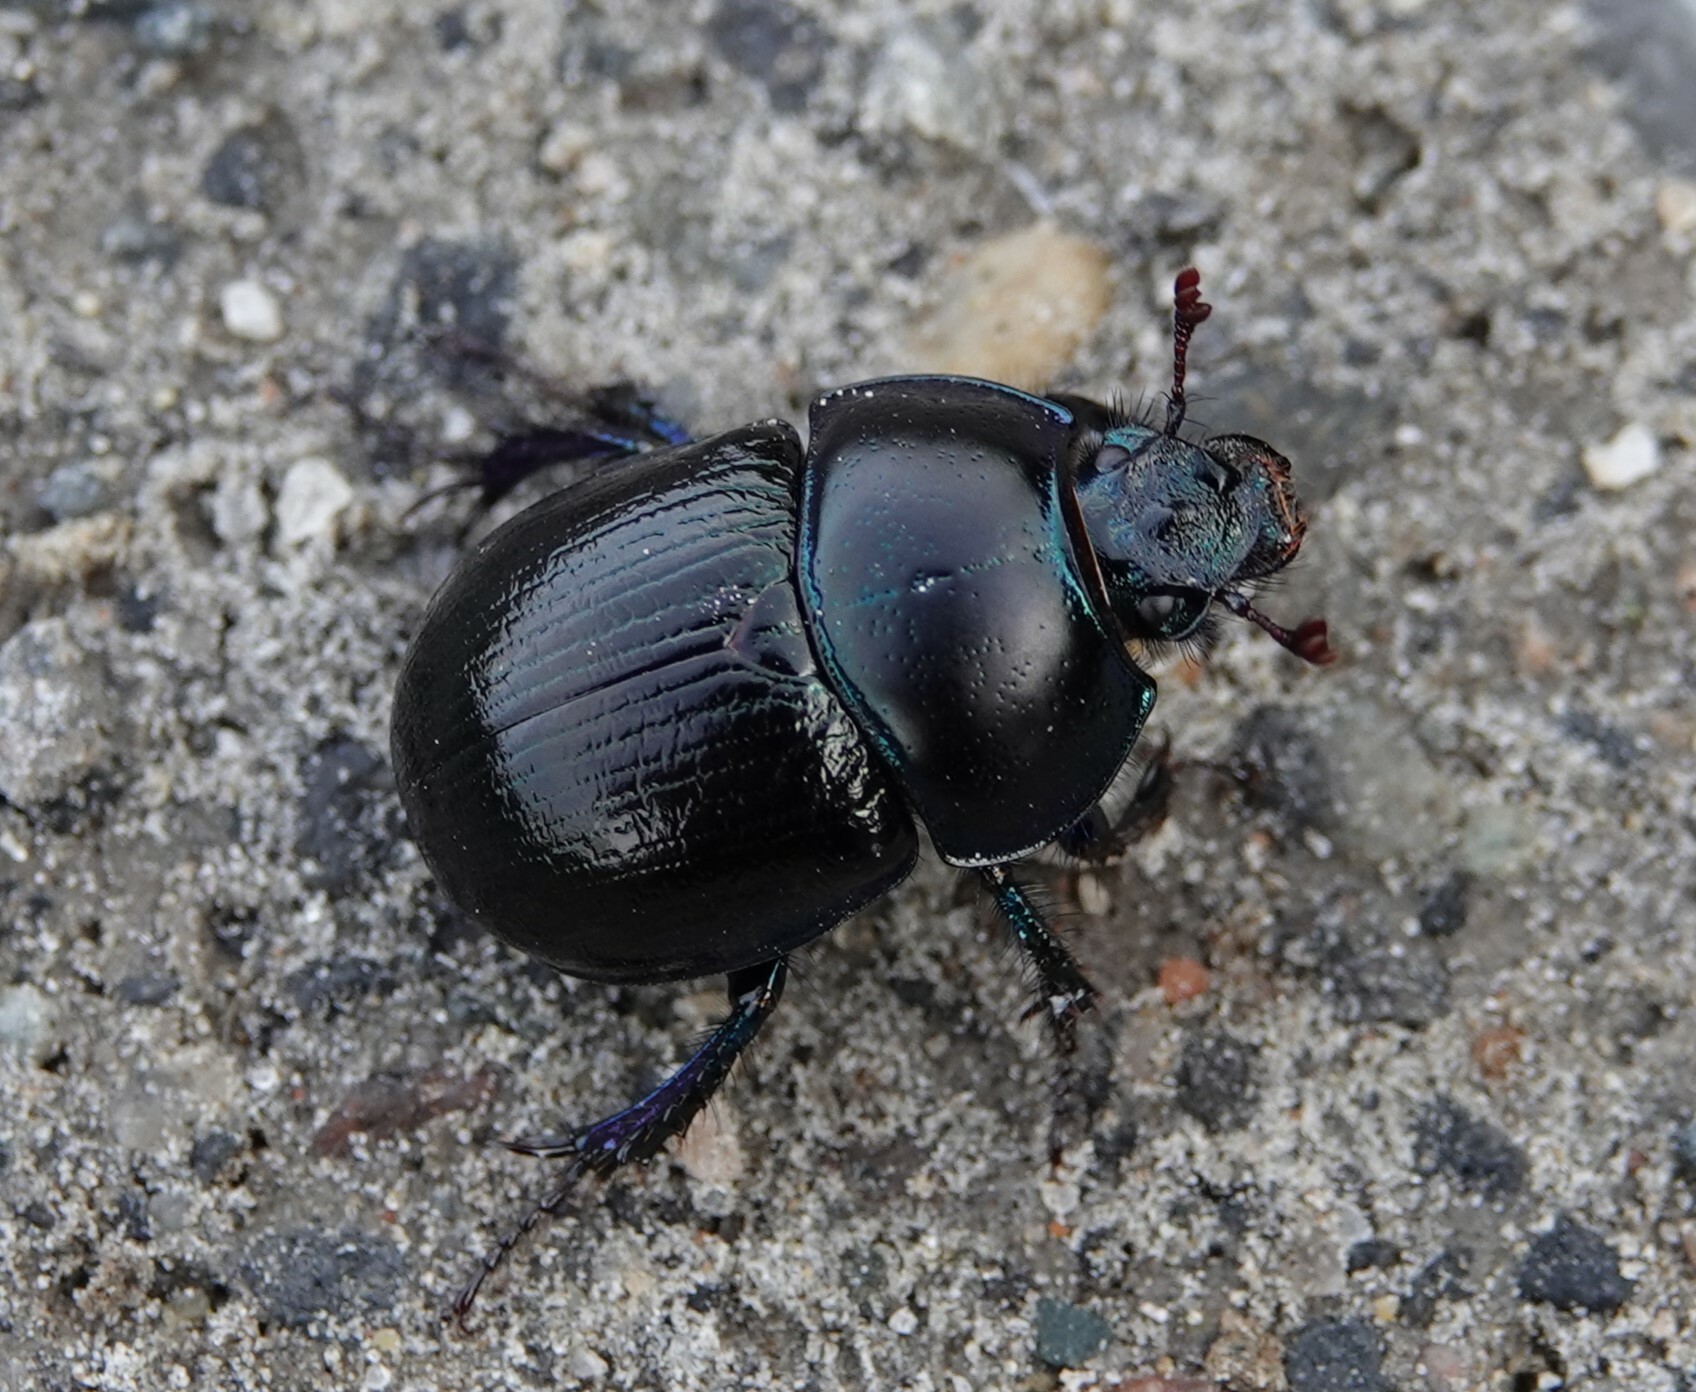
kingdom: Animalia
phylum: Arthropoda
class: Insecta
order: Coleoptera
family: Geotrupidae
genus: Anoplotrupes
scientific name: Anoplotrupes stercorosus
